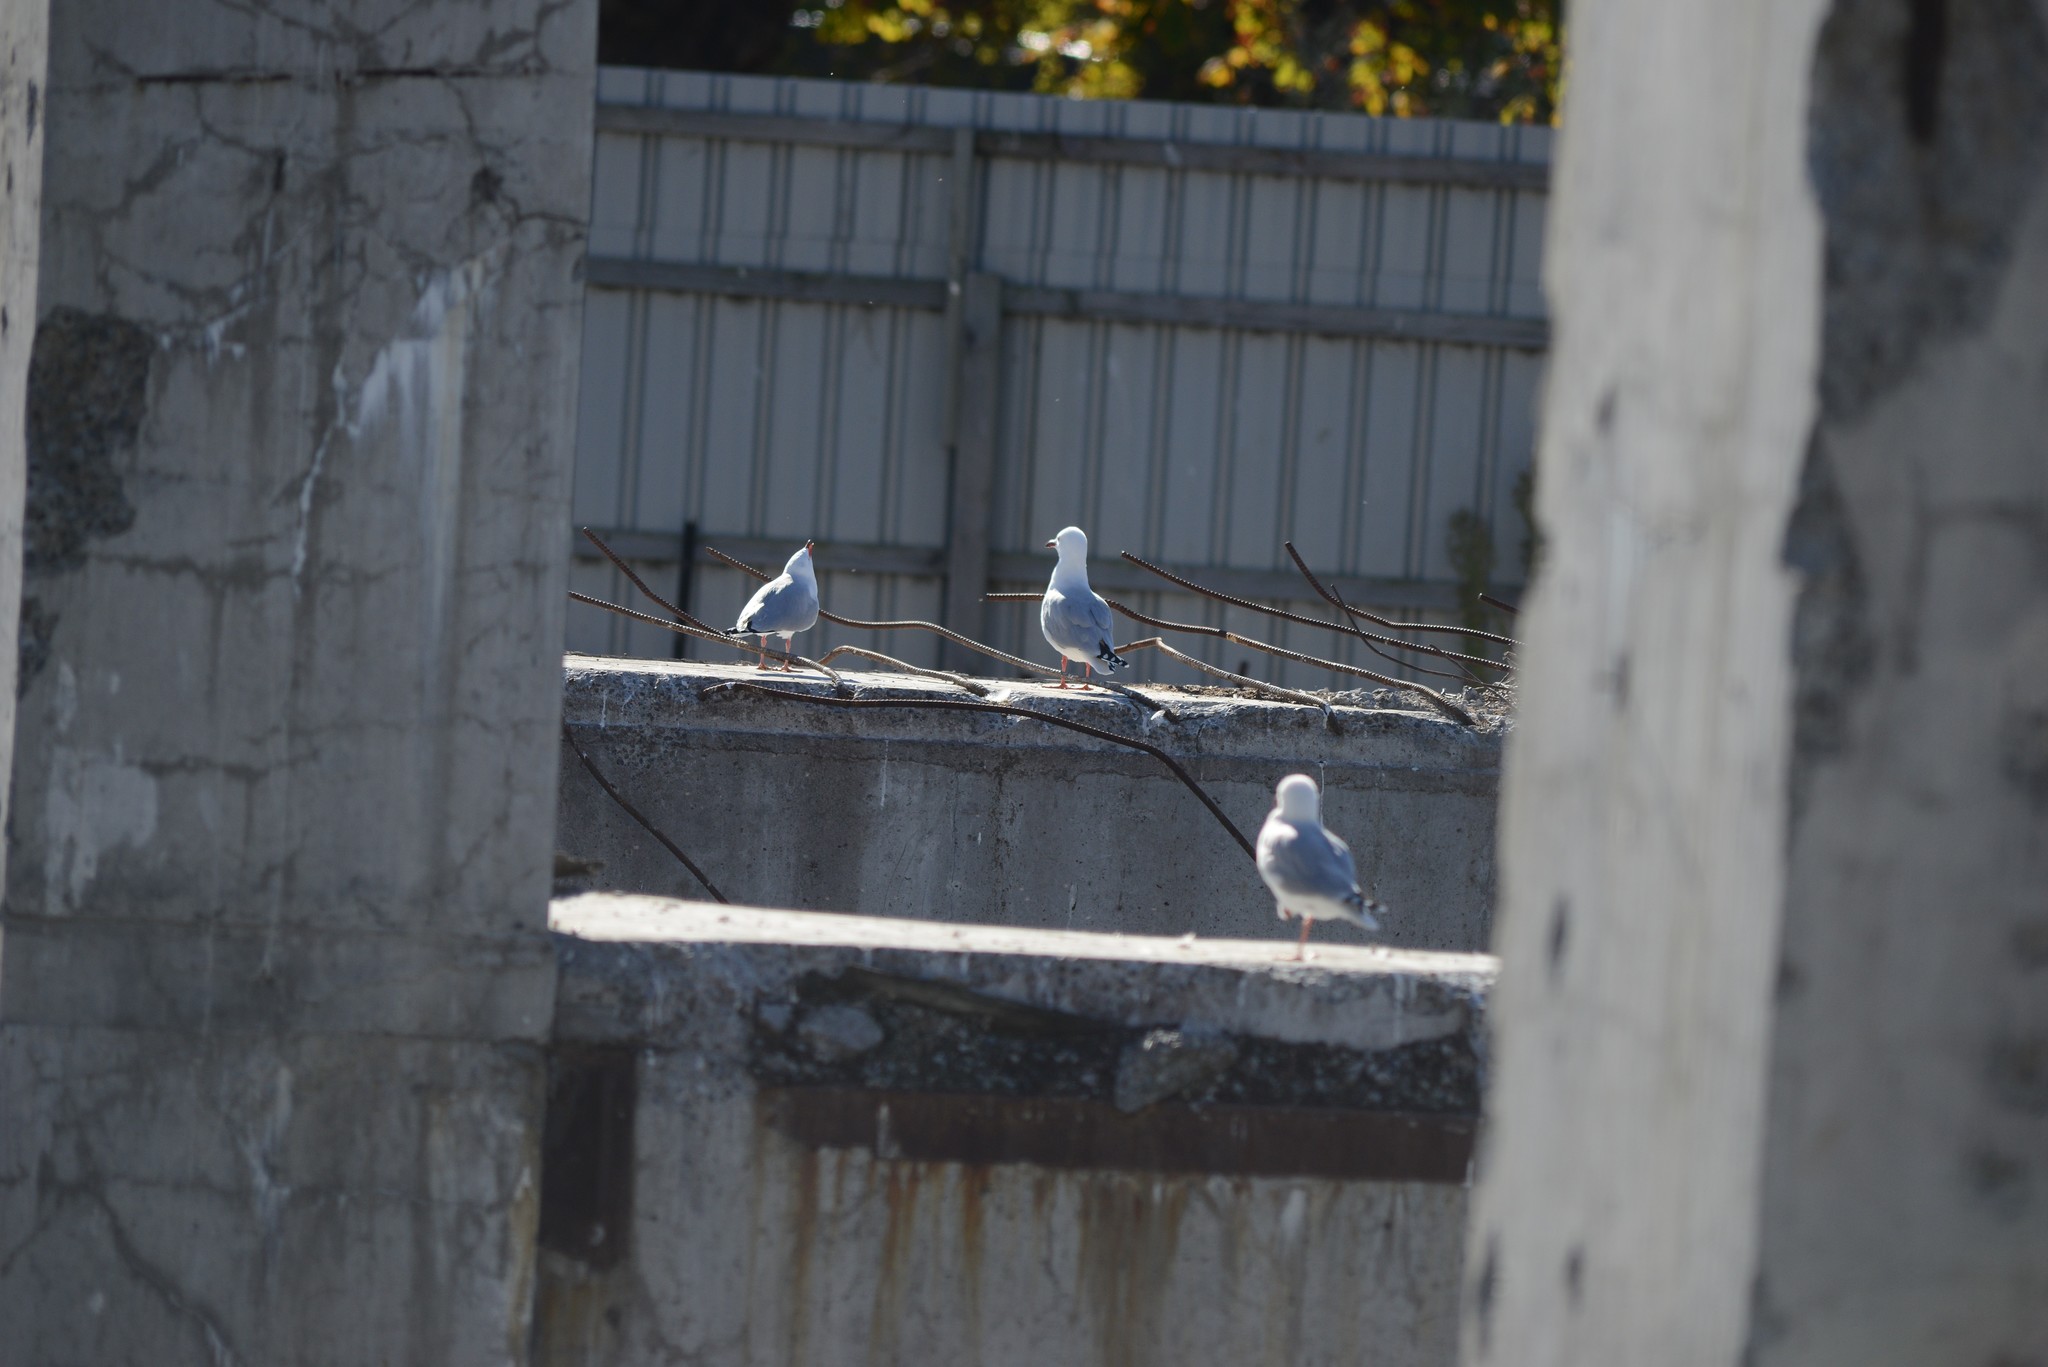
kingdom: Animalia
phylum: Chordata
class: Aves
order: Charadriiformes
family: Laridae
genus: Chroicocephalus
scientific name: Chroicocephalus novaehollandiae
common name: Silver gull
